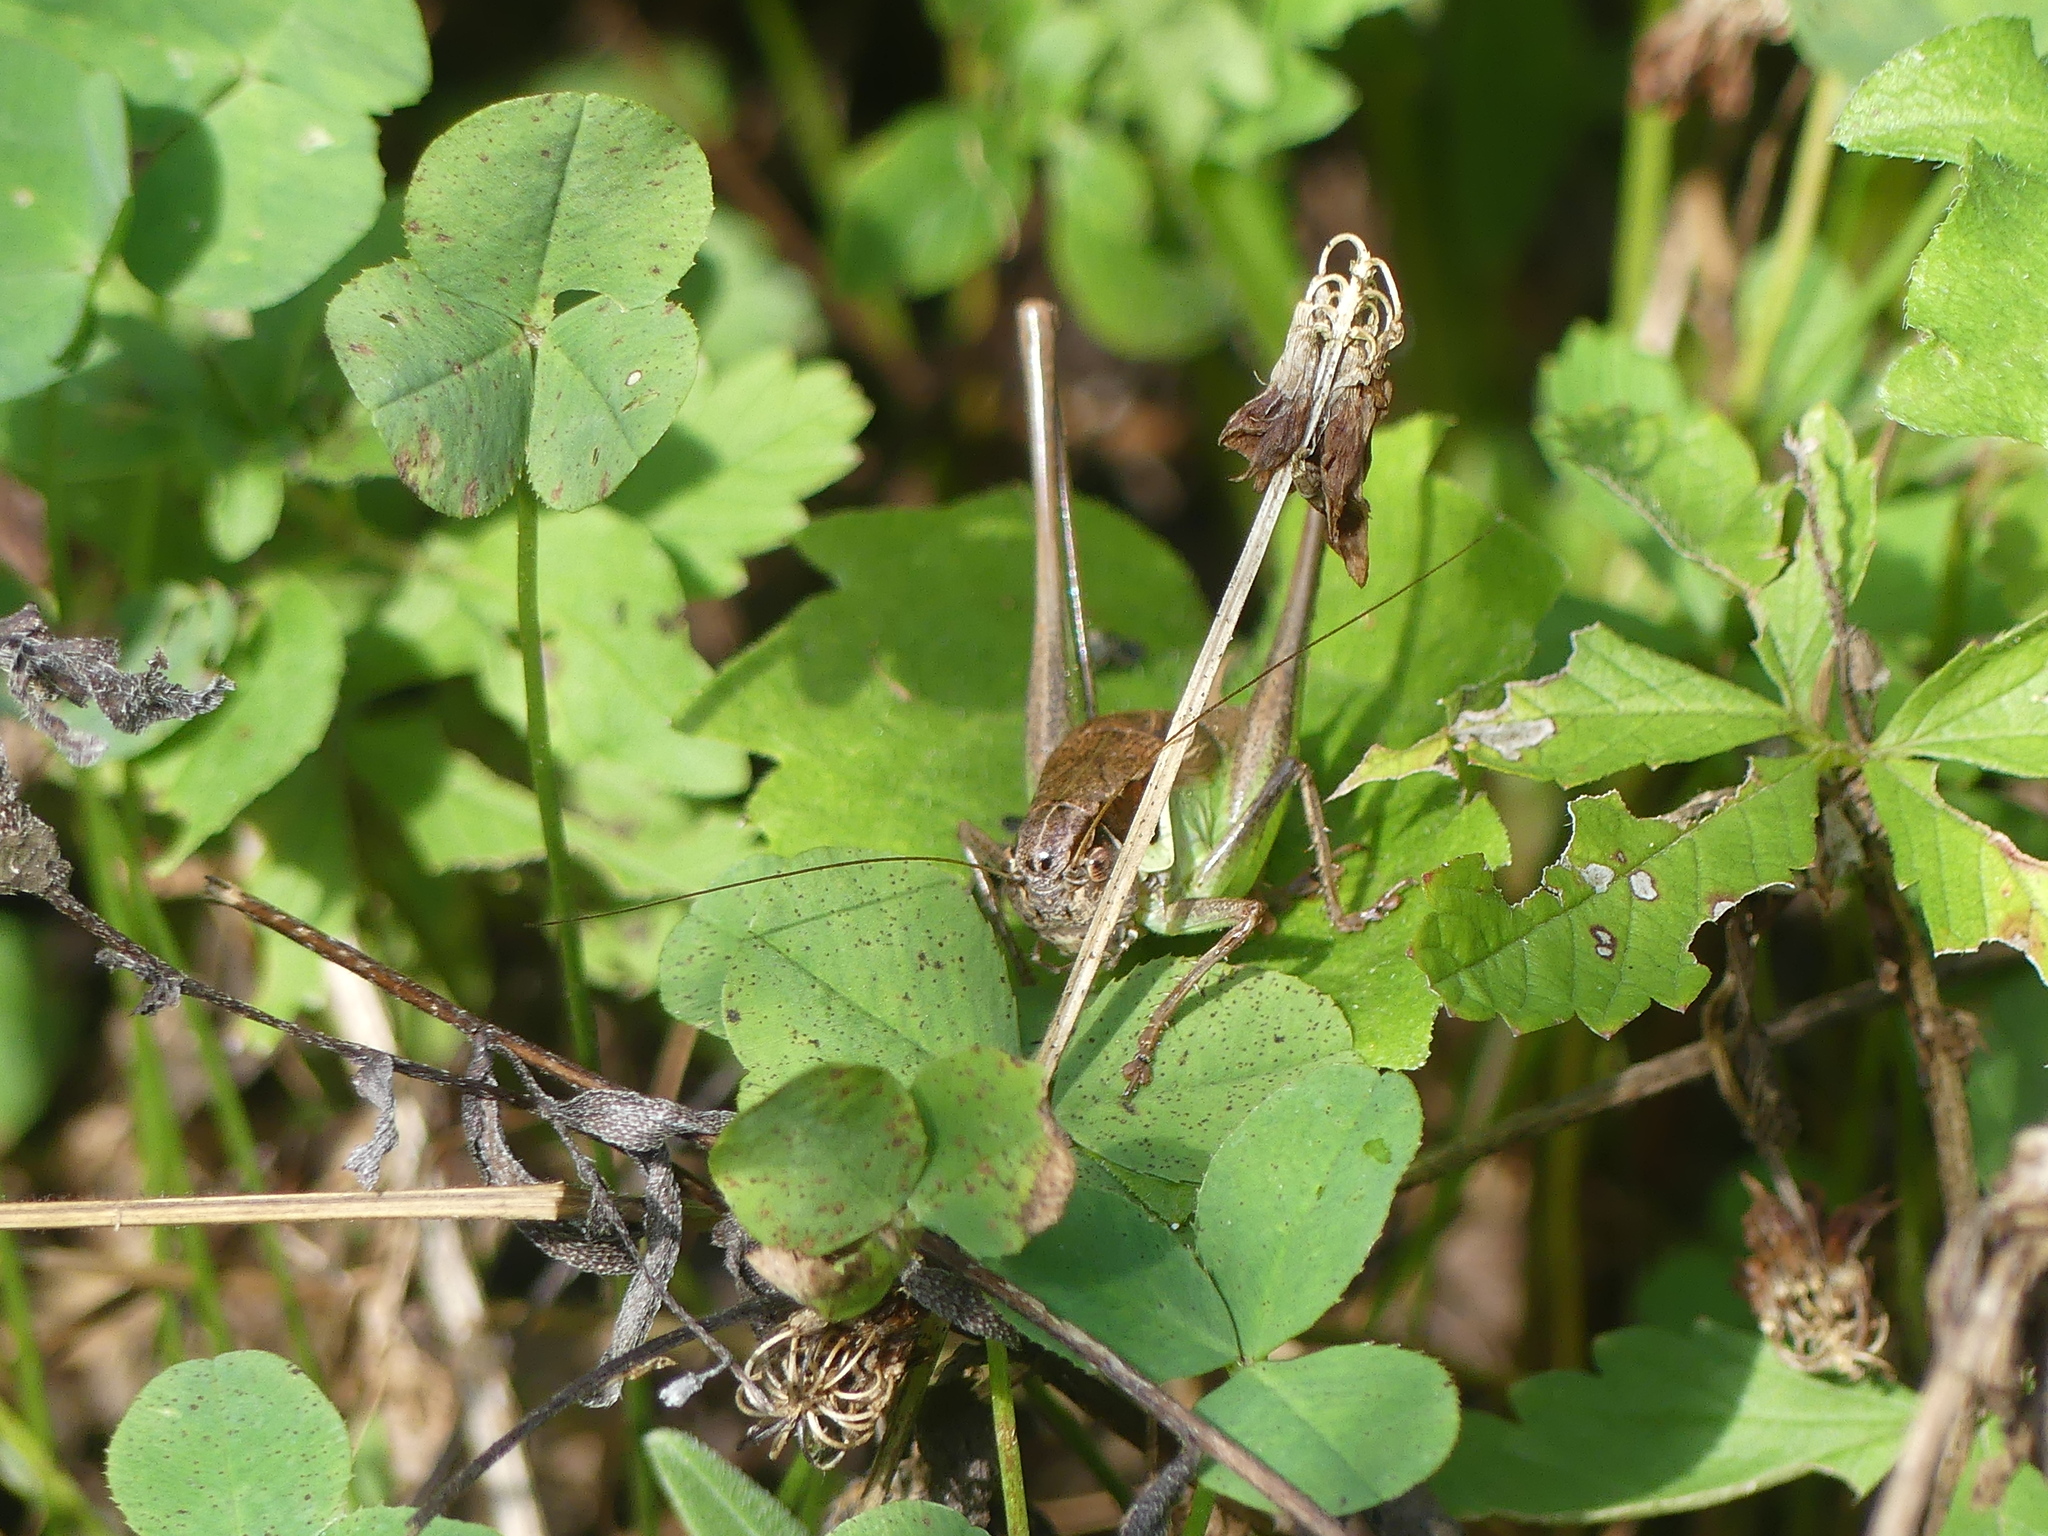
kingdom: Animalia
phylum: Arthropoda
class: Insecta
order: Orthoptera
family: Tettigoniidae
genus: Pholidoptera
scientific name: Pholidoptera littoralis
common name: Littoral dark bush-cricket
